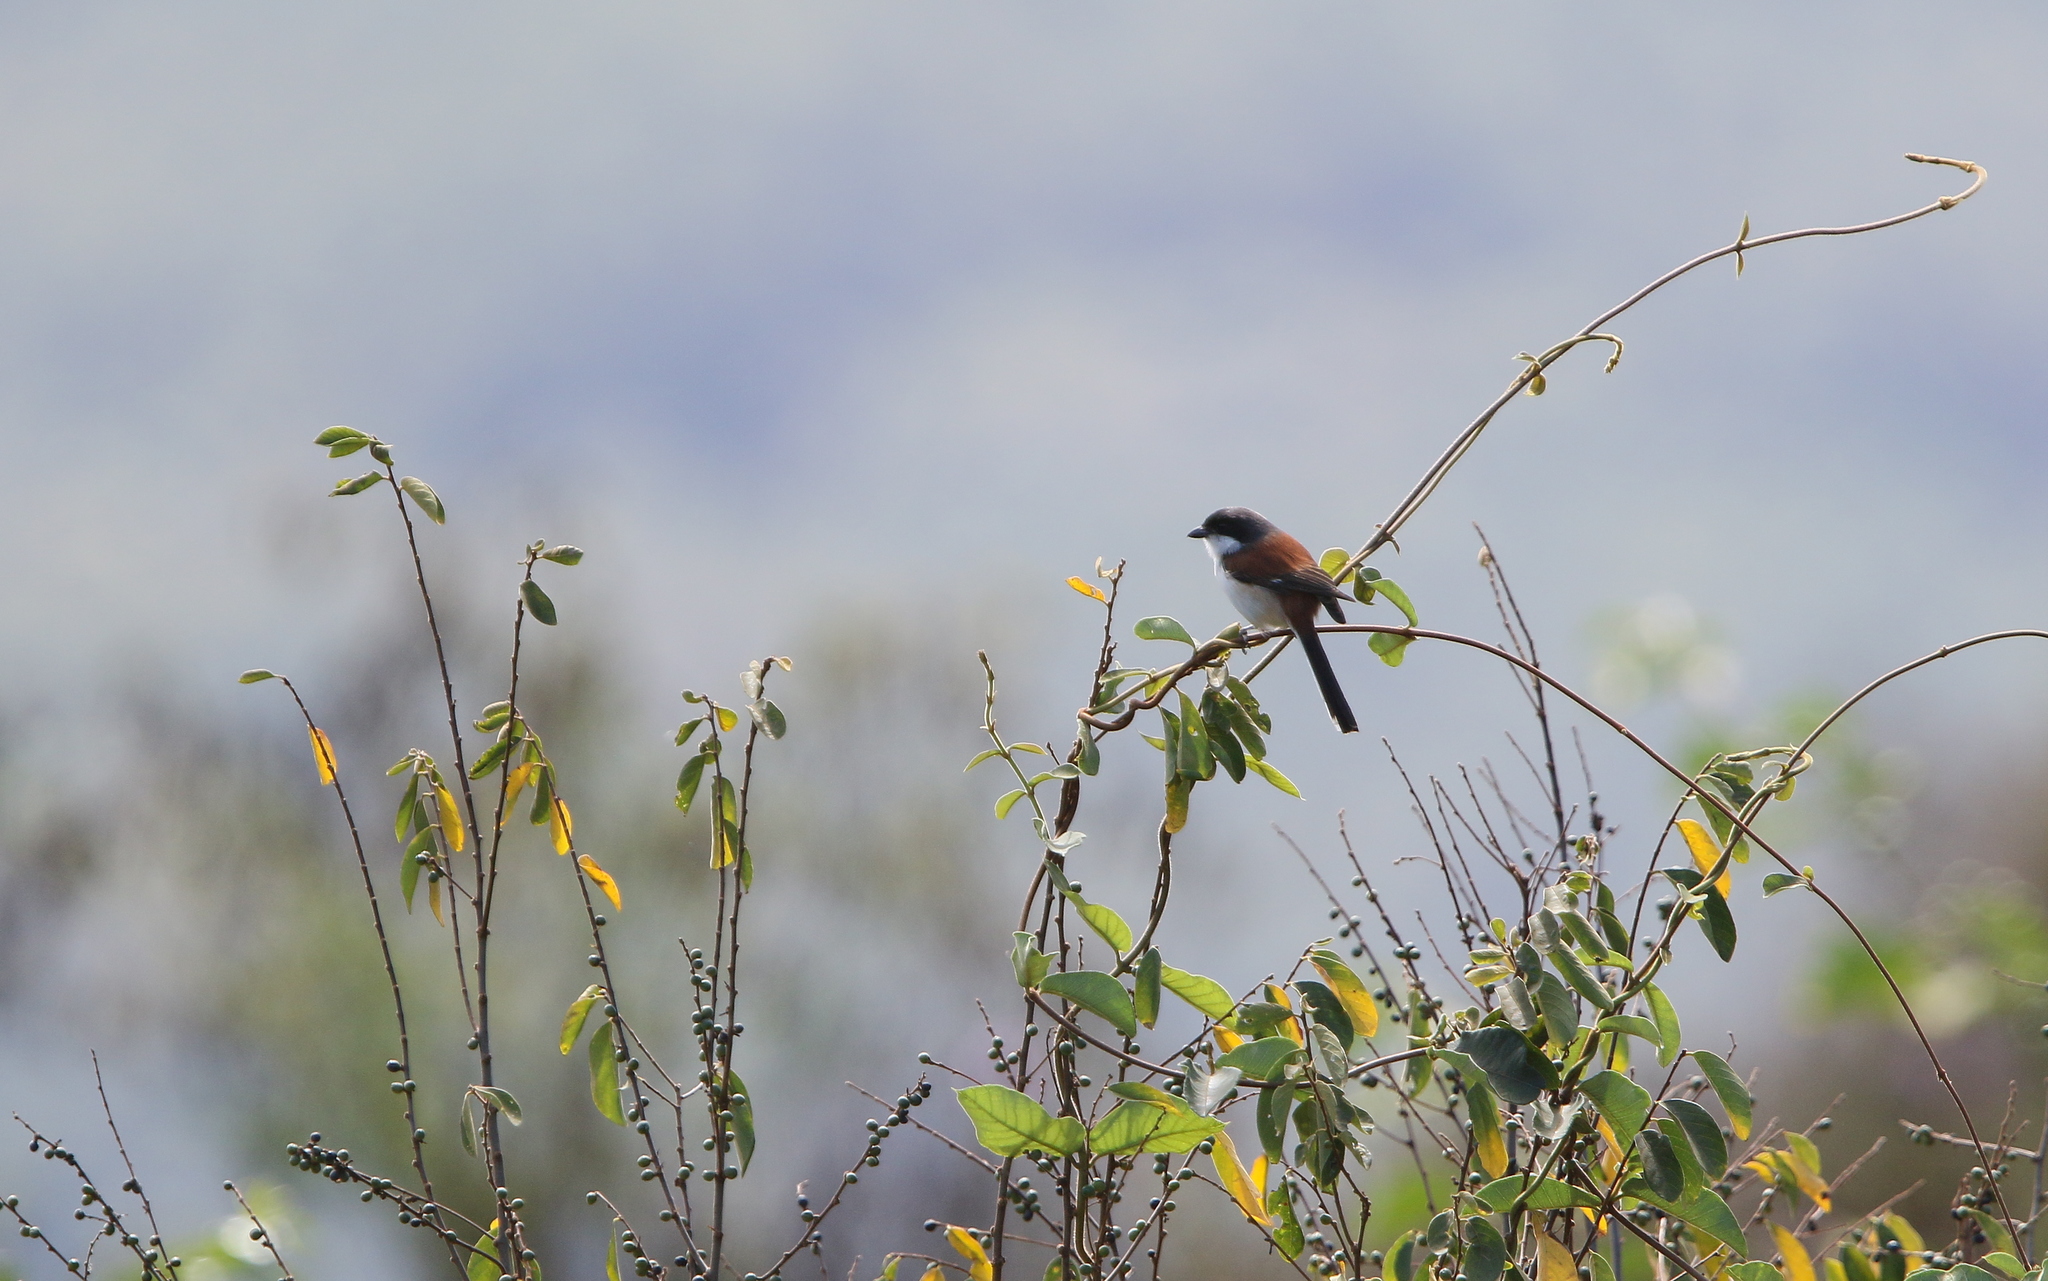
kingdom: Animalia
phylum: Chordata
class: Aves
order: Passeriformes
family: Laniidae
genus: Lanius
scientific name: Lanius collurioides
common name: Burmese shrike
